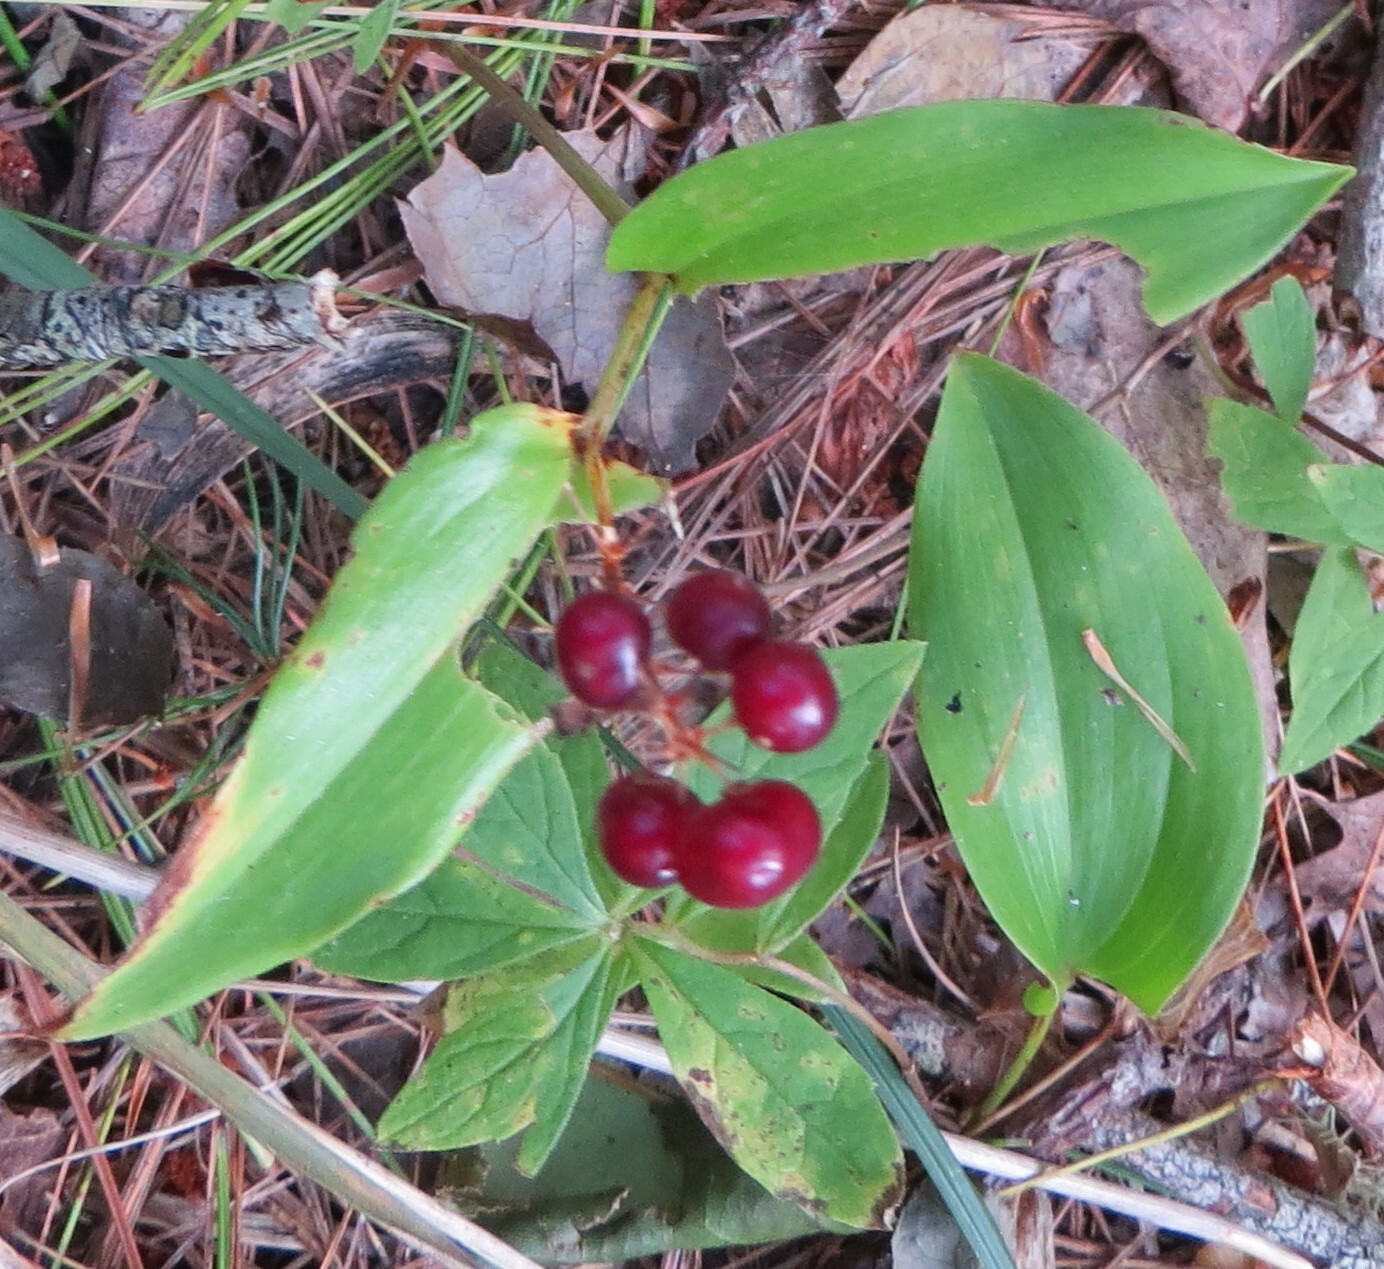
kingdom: Plantae
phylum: Tracheophyta
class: Magnoliopsida
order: Ericales
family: Primulaceae
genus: Lysimachia
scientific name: Lysimachia borealis
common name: American starflower
